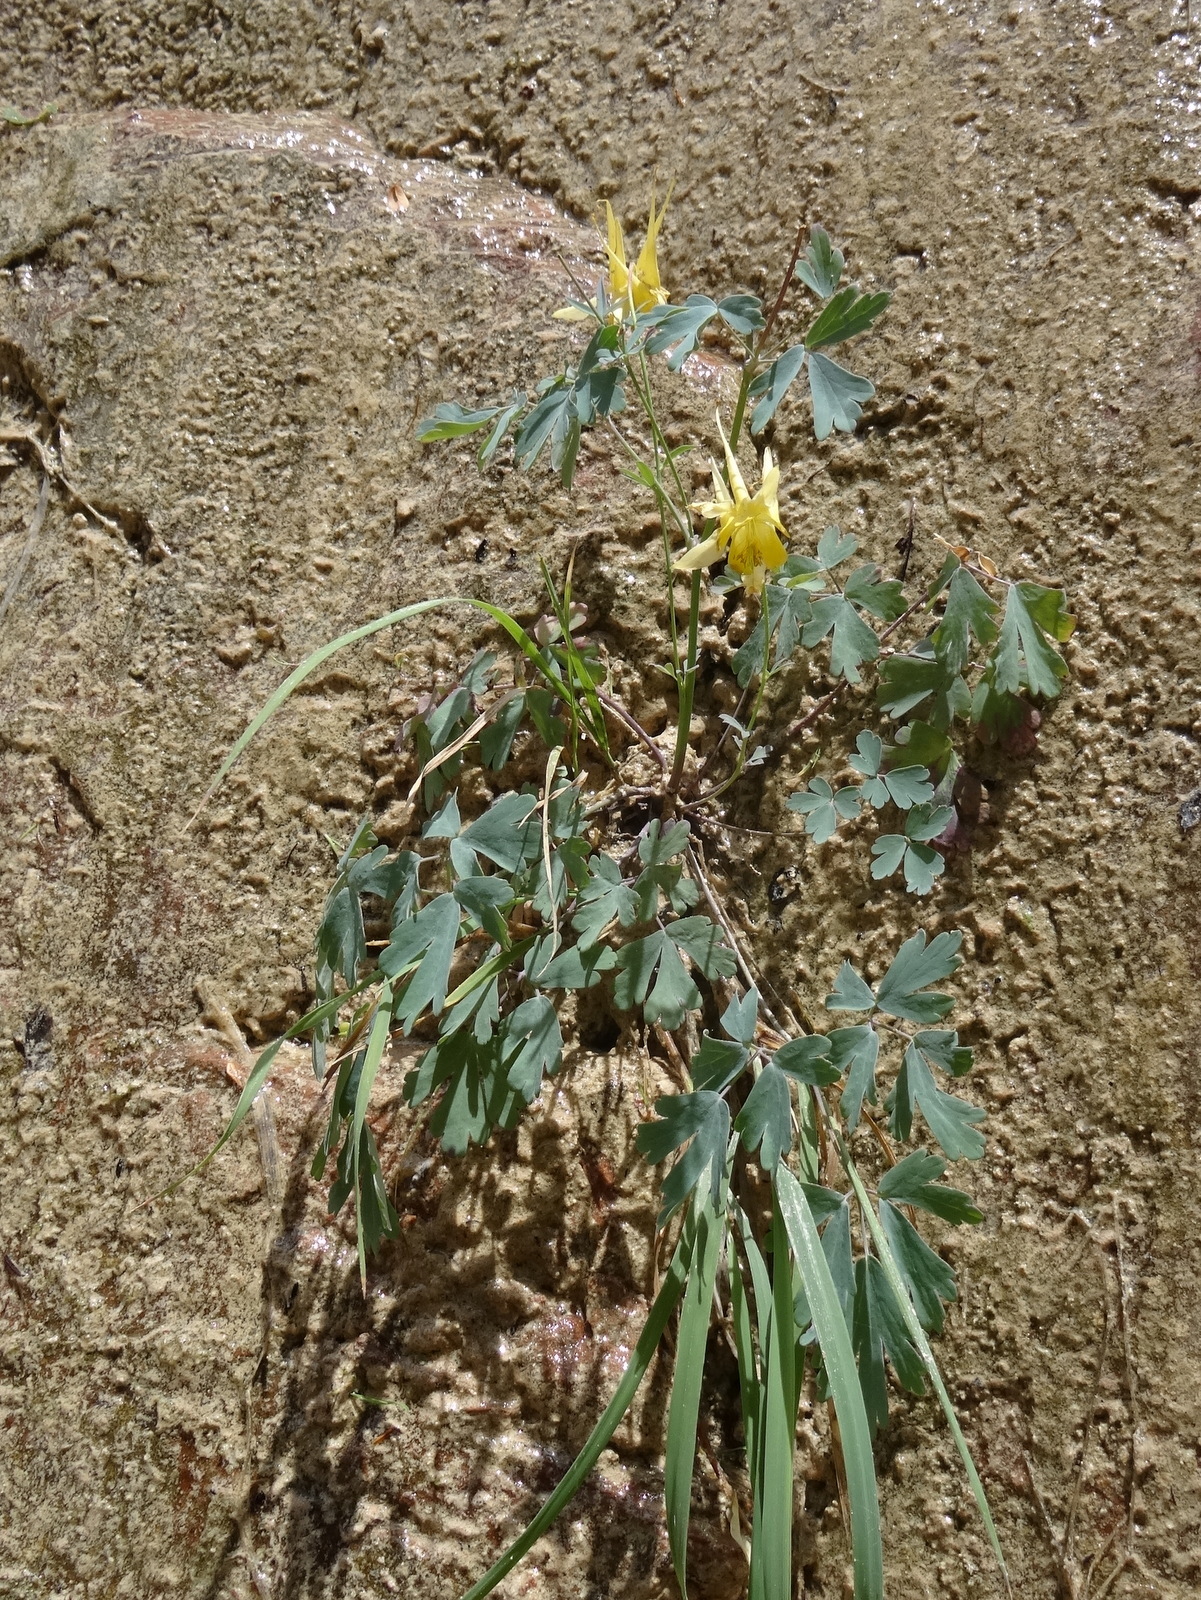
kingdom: Plantae
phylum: Tracheophyta
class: Magnoliopsida
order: Ranunculales
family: Ranunculaceae
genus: Aquilegia
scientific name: Aquilegia chrysantha
